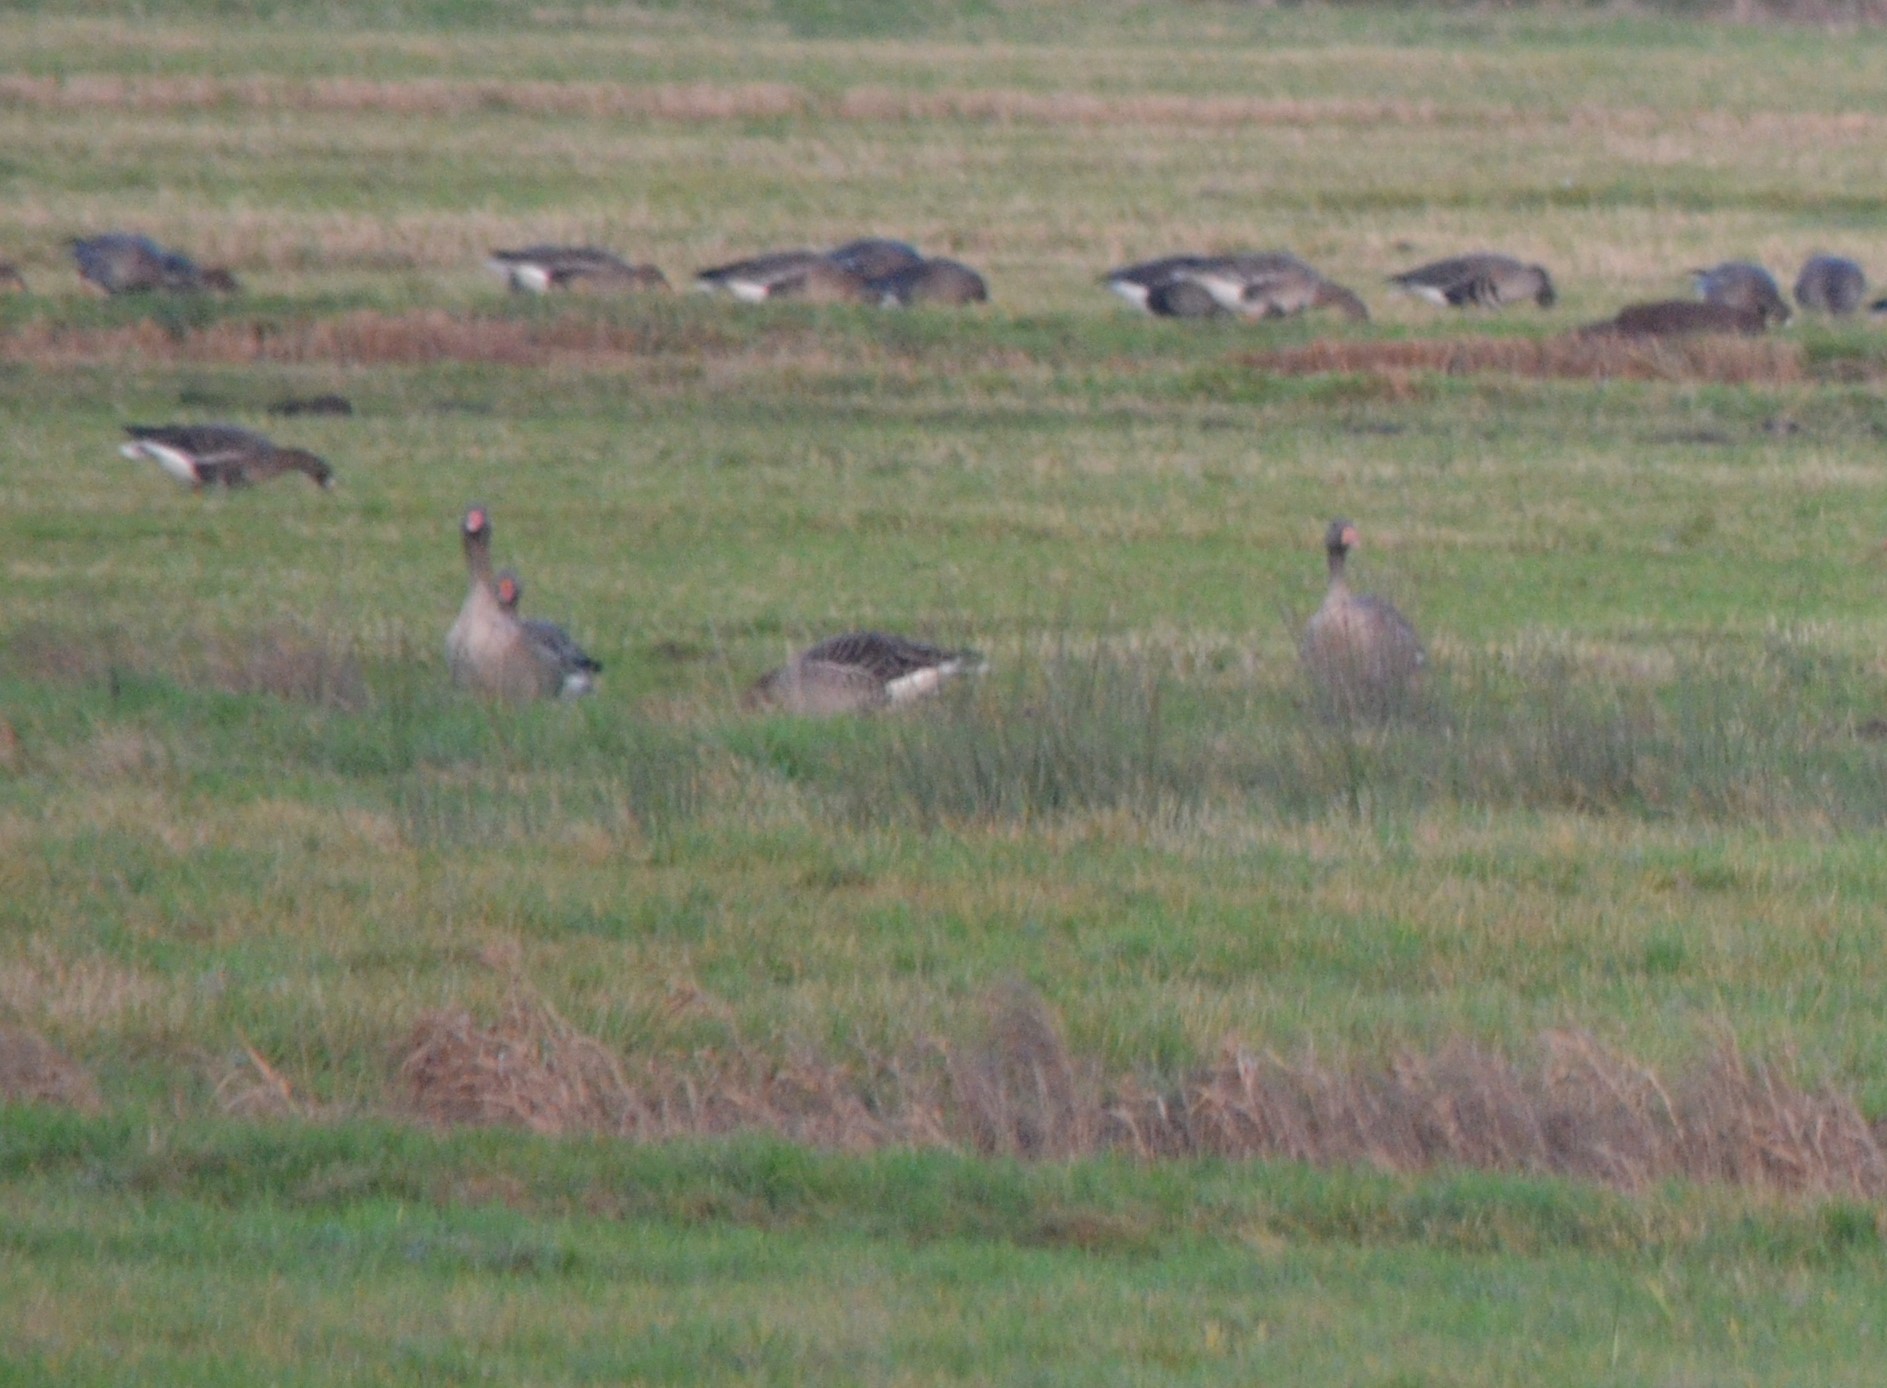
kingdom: Animalia
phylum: Chordata
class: Aves
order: Anseriformes
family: Anatidae
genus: Anser
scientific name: Anser anser
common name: Greylag goose
